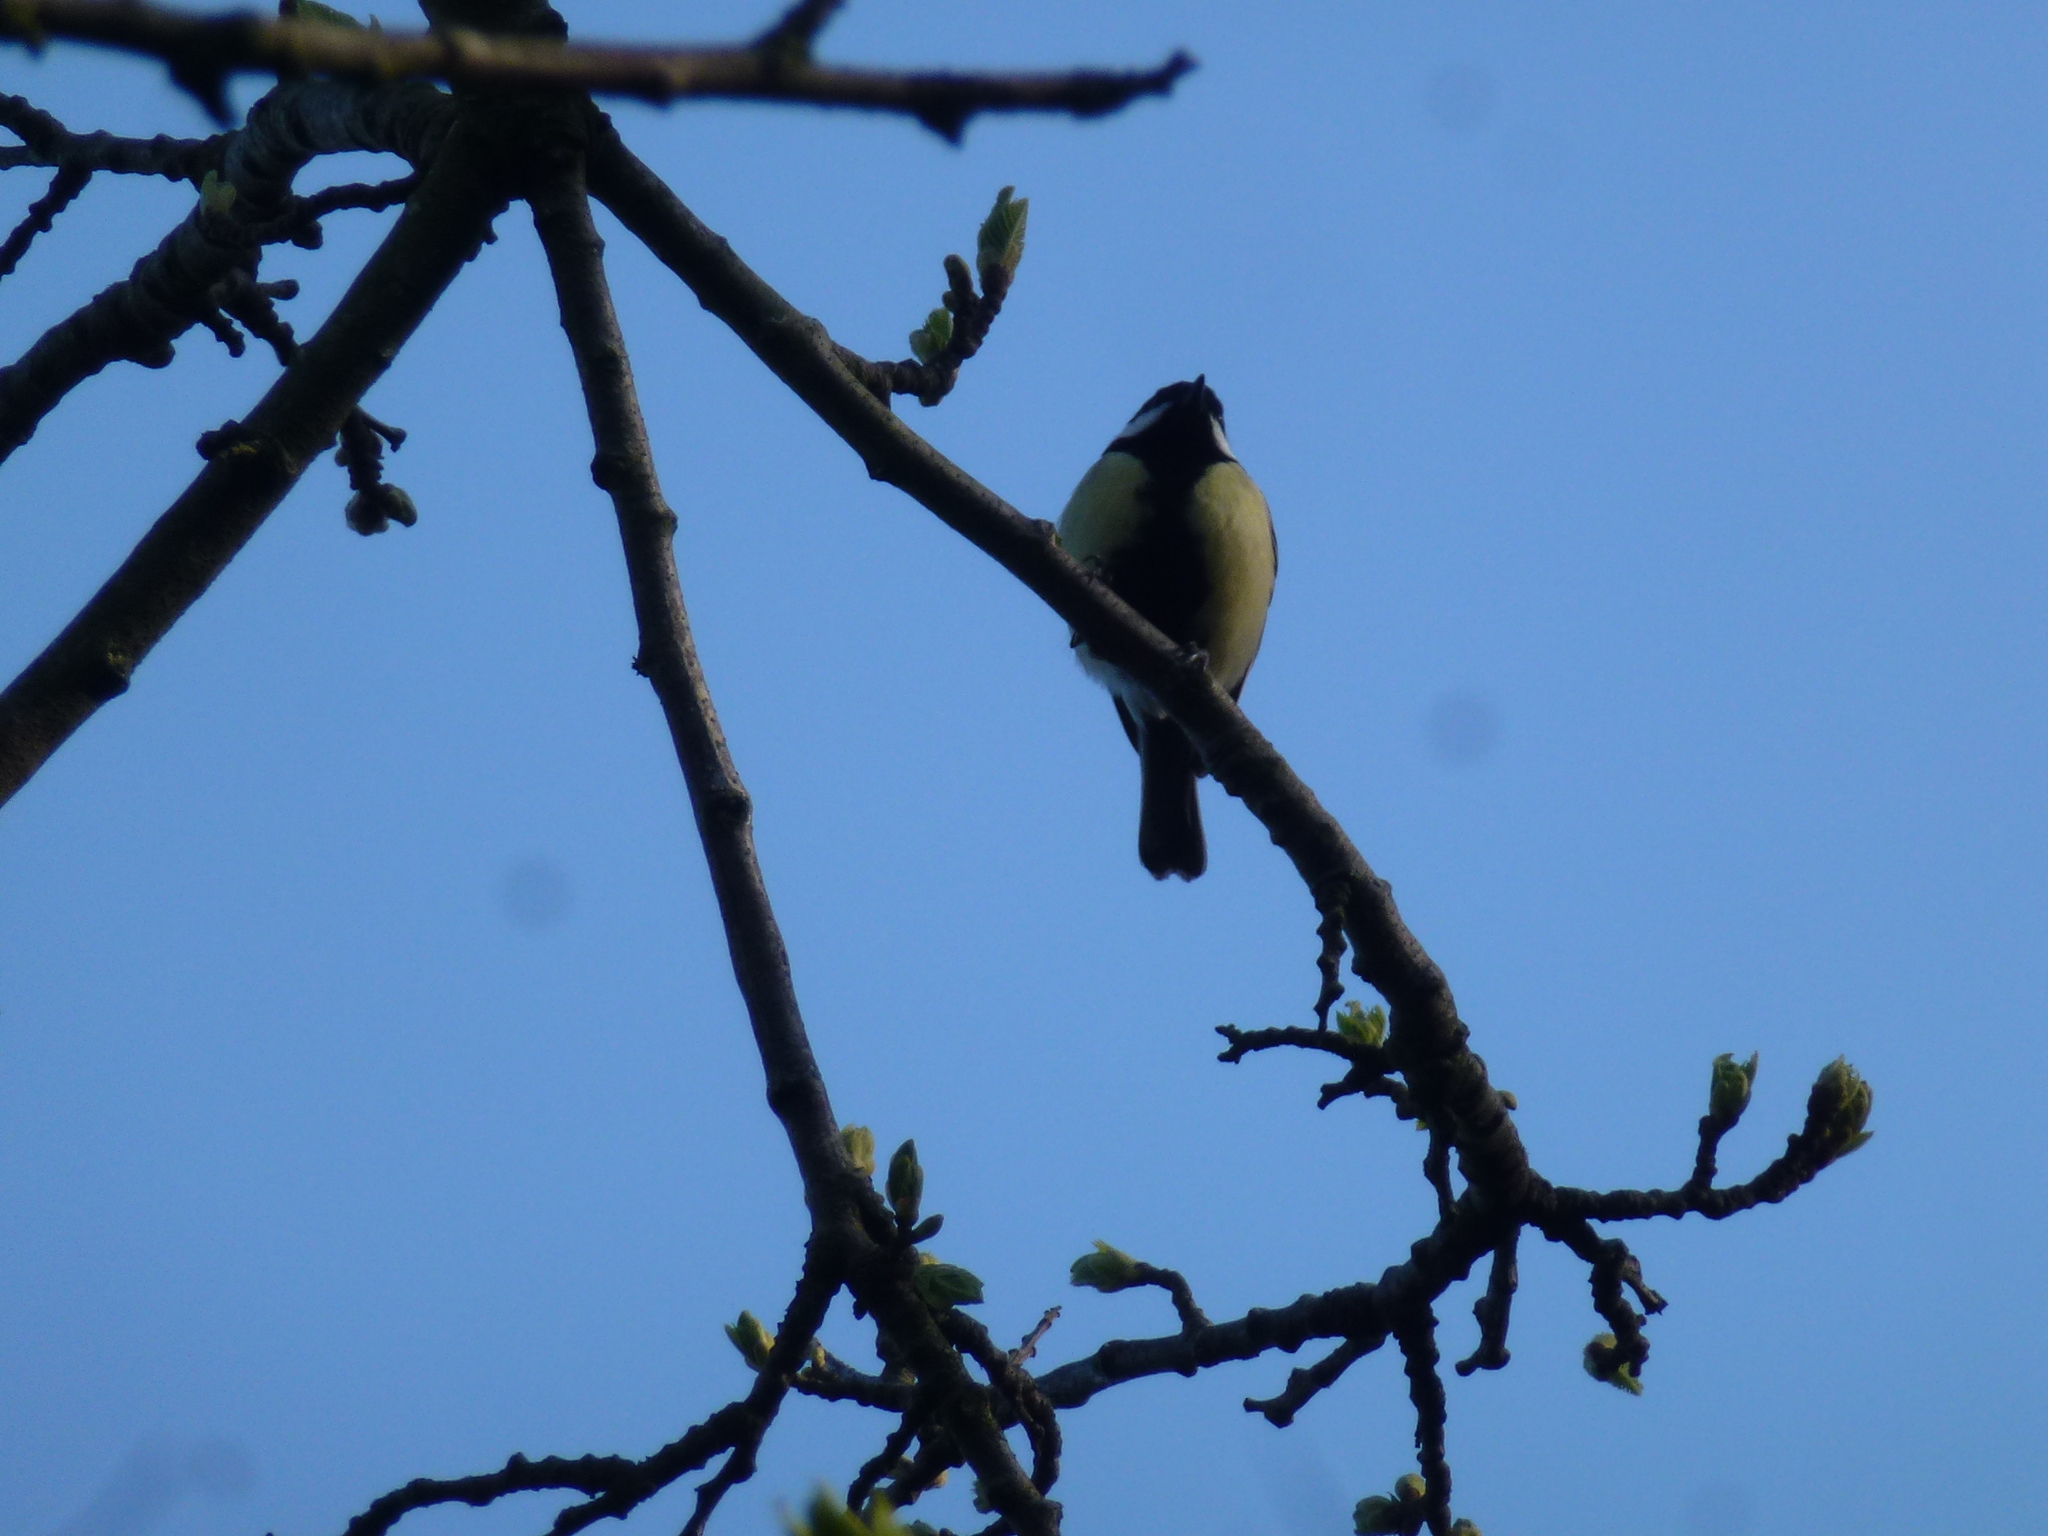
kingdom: Animalia
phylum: Chordata
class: Aves
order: Passeriformes
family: Paridae
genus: Parus
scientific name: Parus major
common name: Great tit
